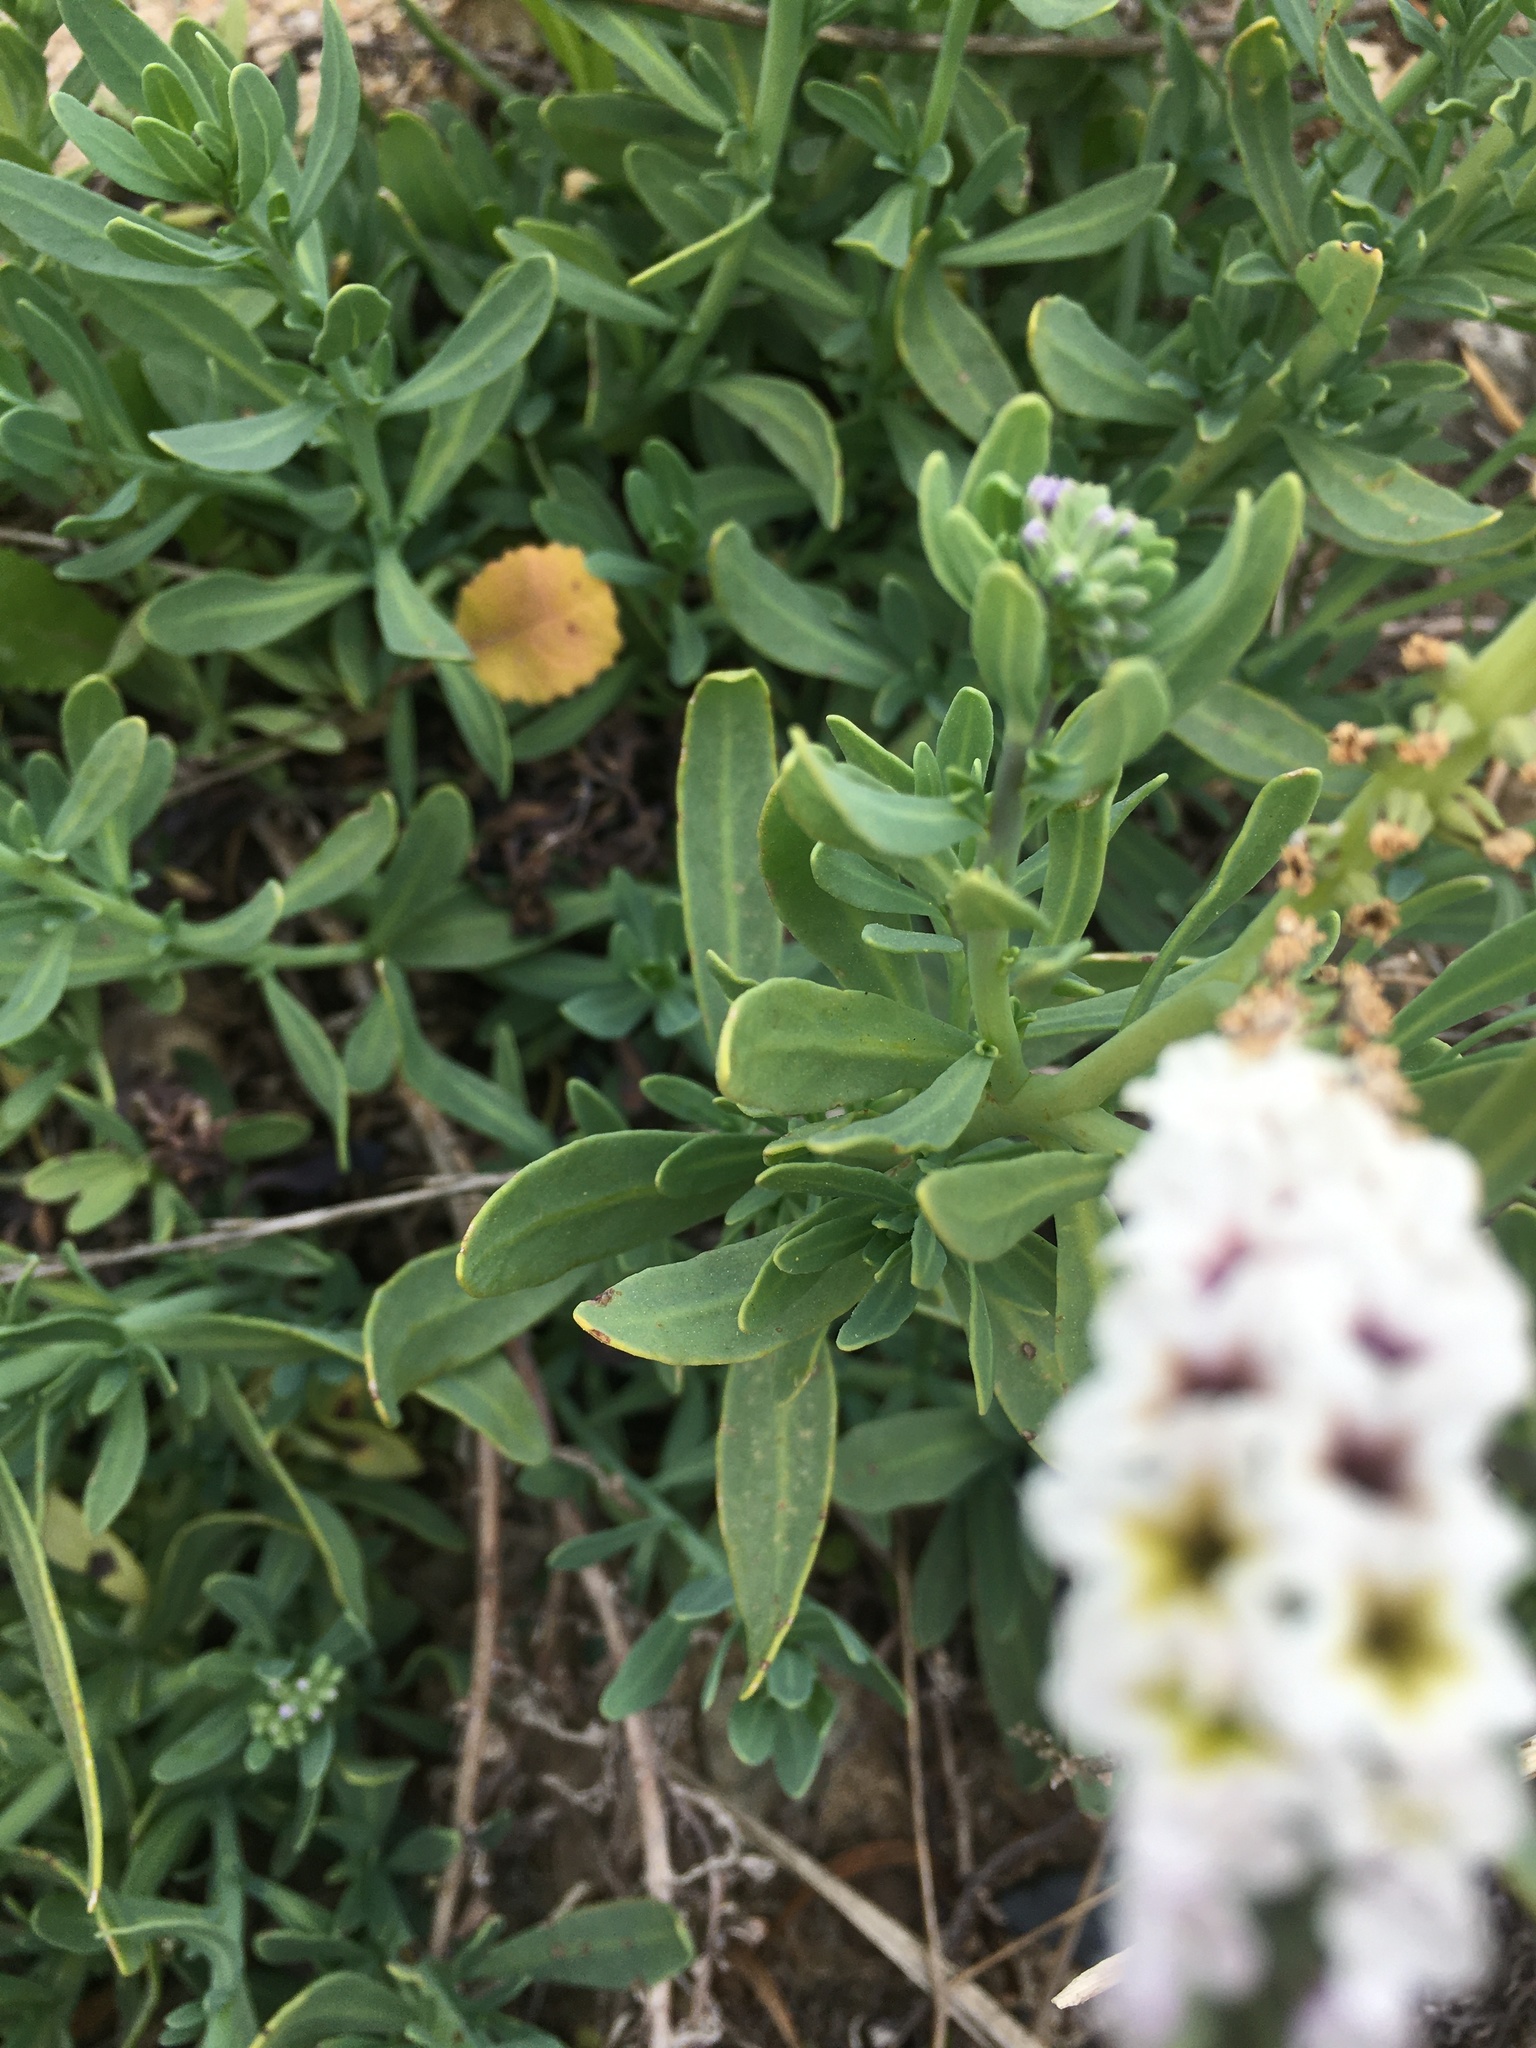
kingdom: Plantae
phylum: Tracheophyta
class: Magnoliopsida
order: Boraginales
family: Heliotropiaceae
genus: Heliotropium
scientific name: Heliotropium curassavicum
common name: Seaside heliotrope
